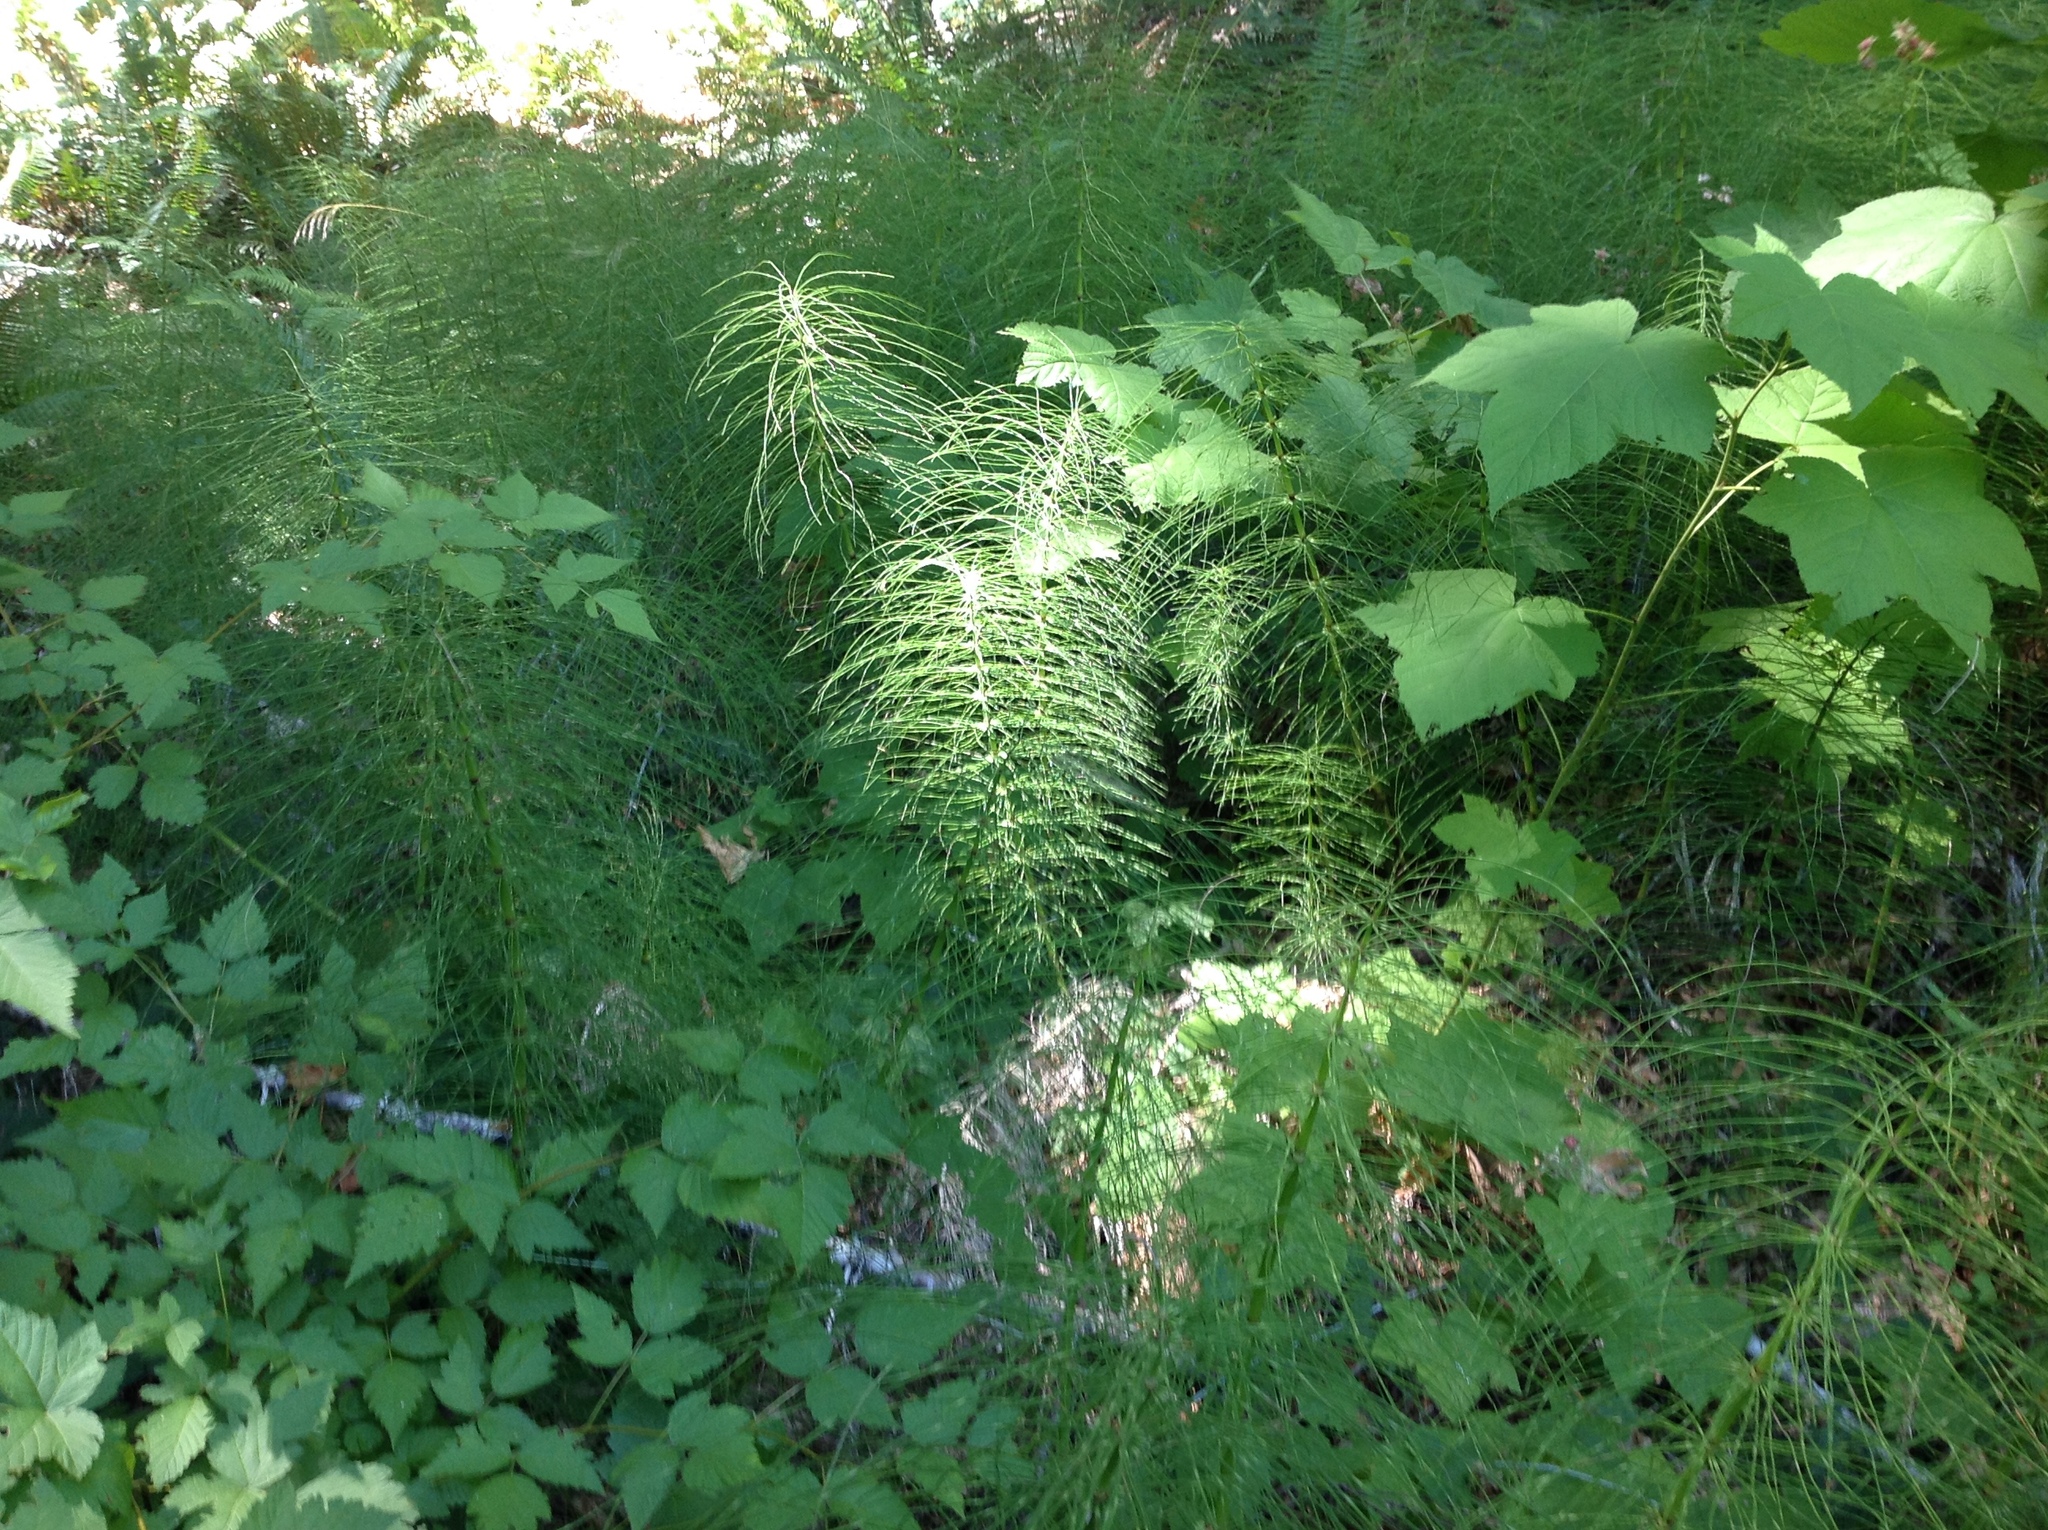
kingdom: Plantae
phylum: Tracheophyta
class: Polypodiopsida
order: Equisetales
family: Equisetaceae
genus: Equisetum
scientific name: Equisetum telmateia
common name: Great horsetail
